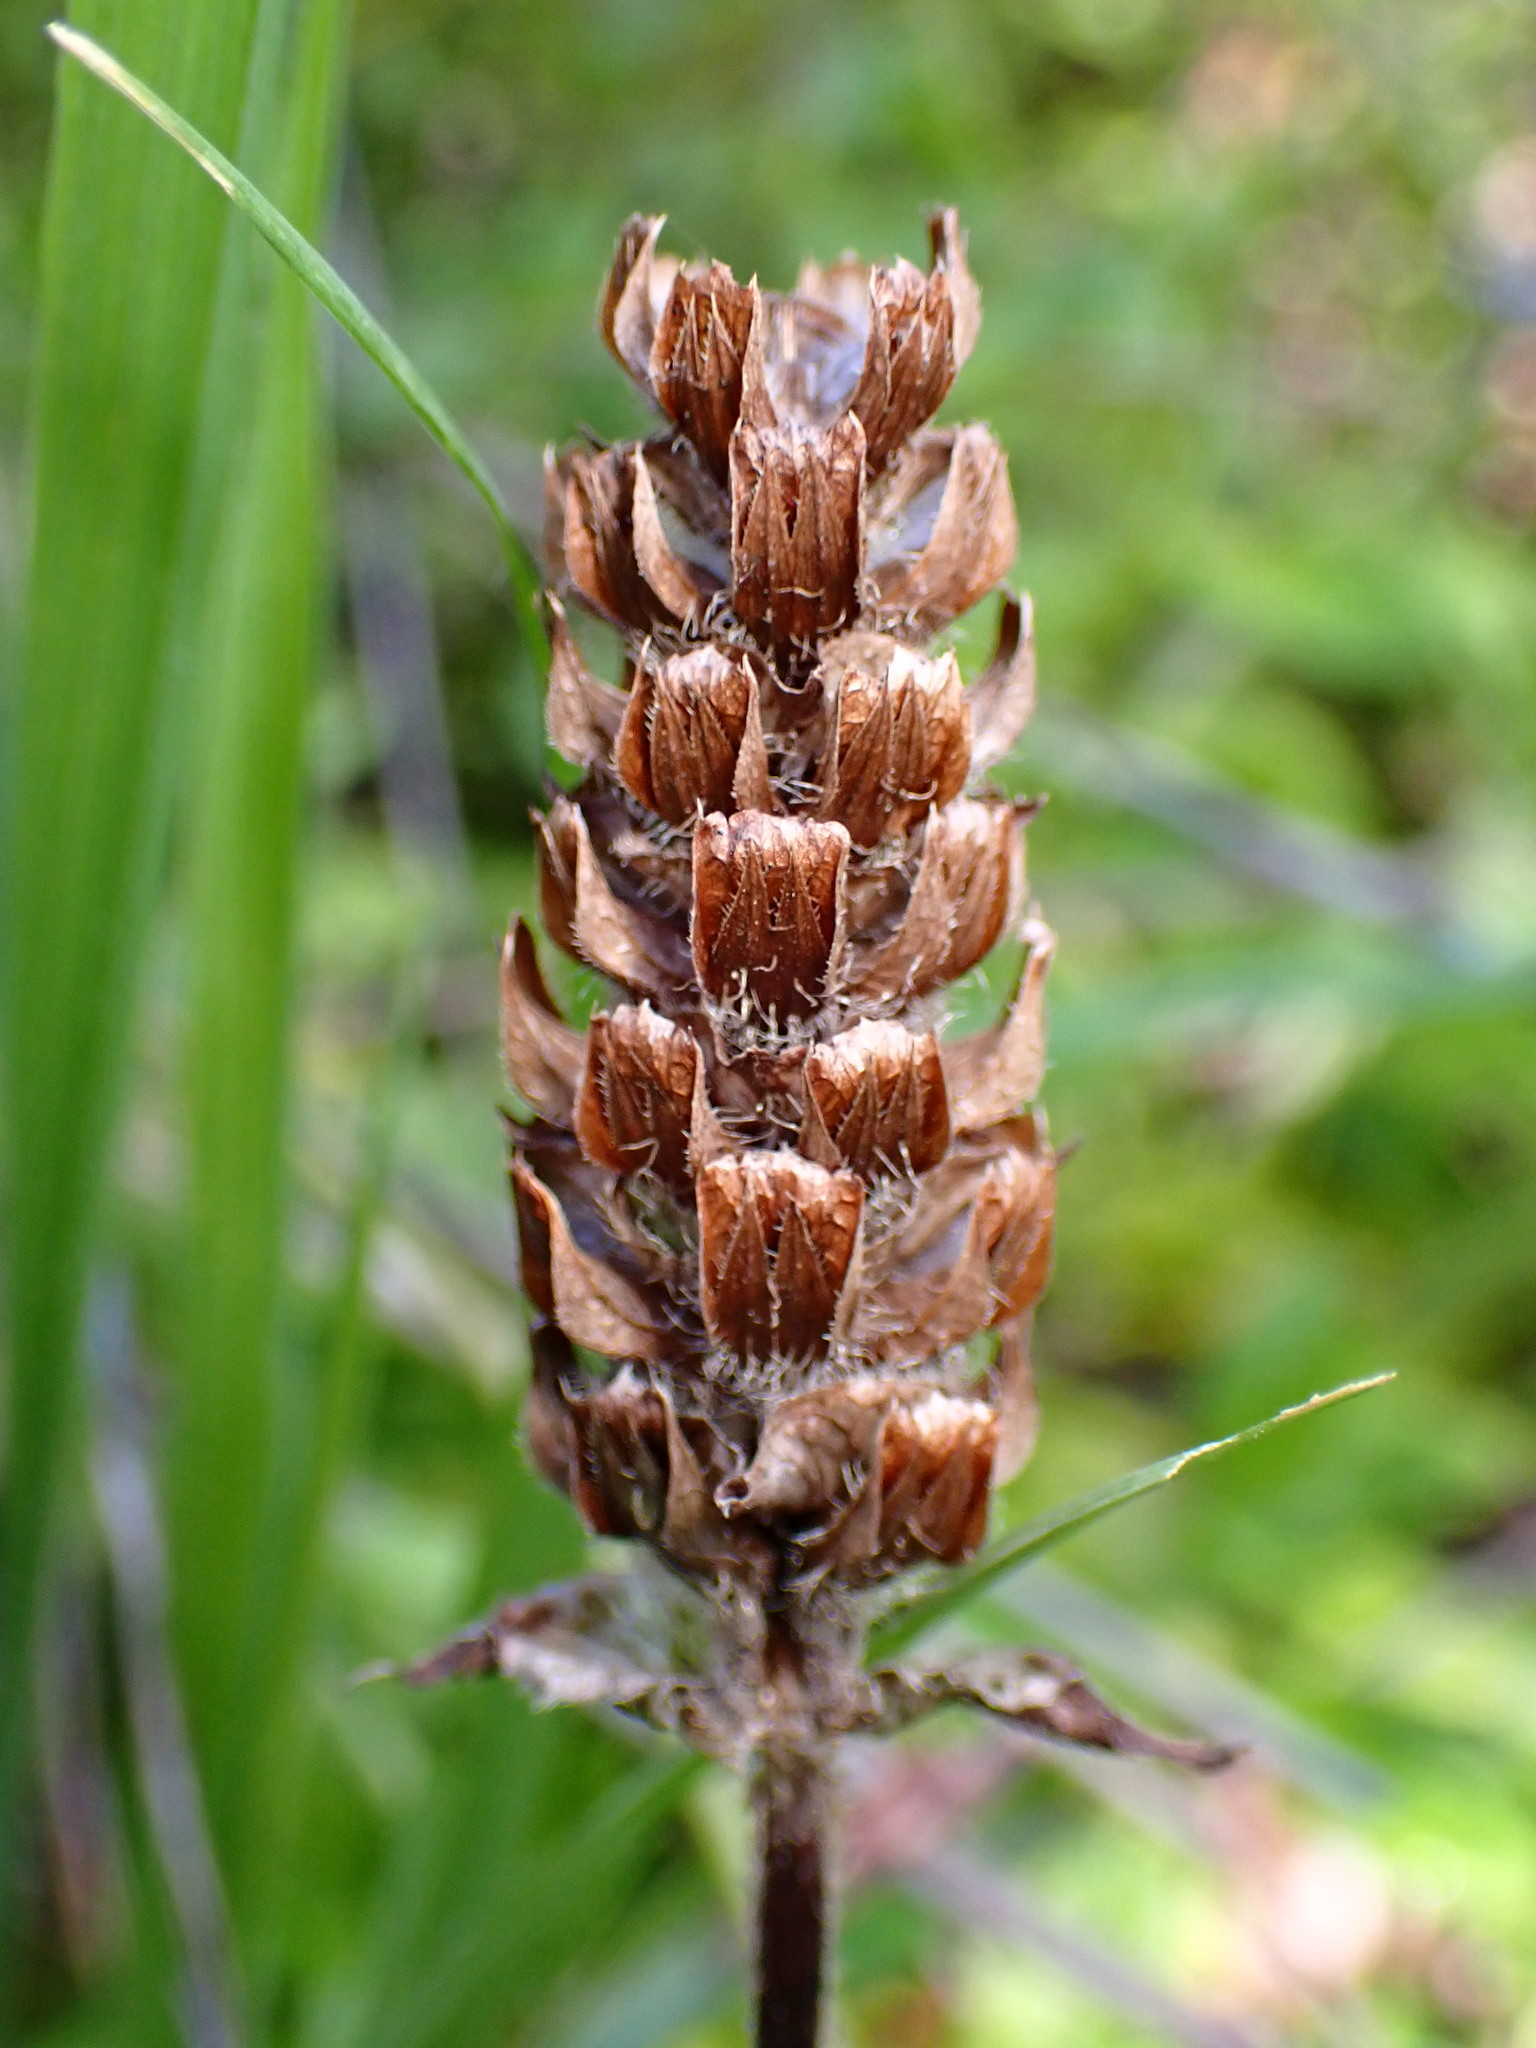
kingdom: Plantae
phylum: Tracheophyta
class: Magnoliopsida
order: Lamiales
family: Lamiaceae
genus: Prunella
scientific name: Prunella vulgaris
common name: Heal-all
